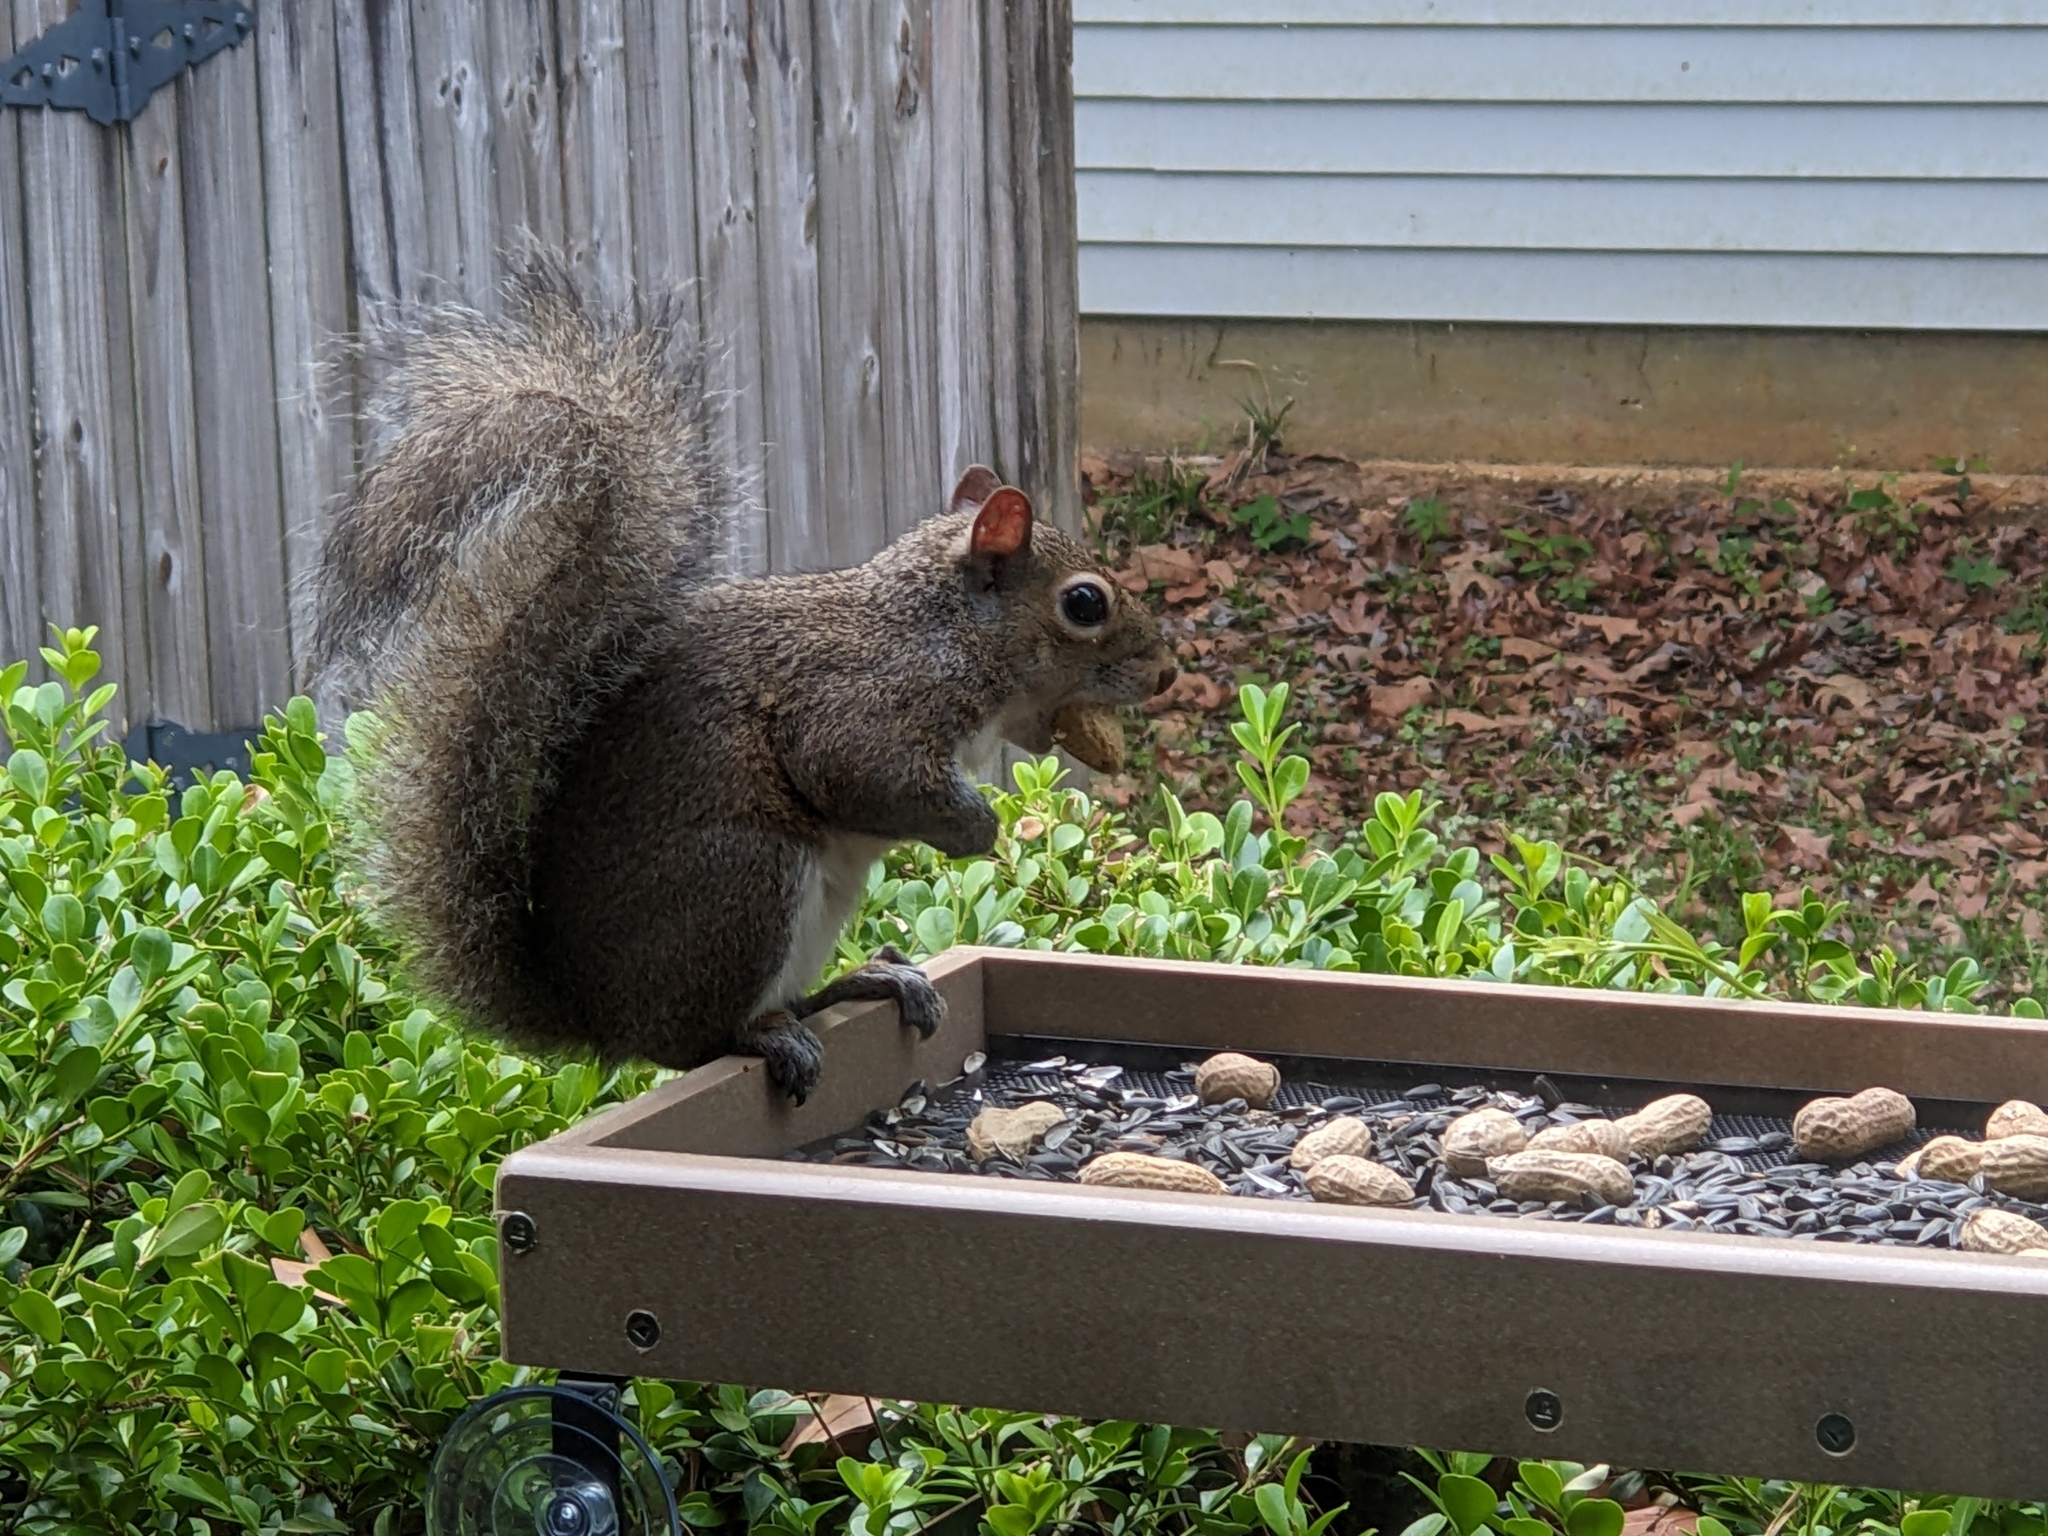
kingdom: Animalia
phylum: Chordata
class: Mammalia
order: Rodentia
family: Sciuridae
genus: Sciurus
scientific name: Sciurus carolinensis
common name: Eastern gray squirrel
